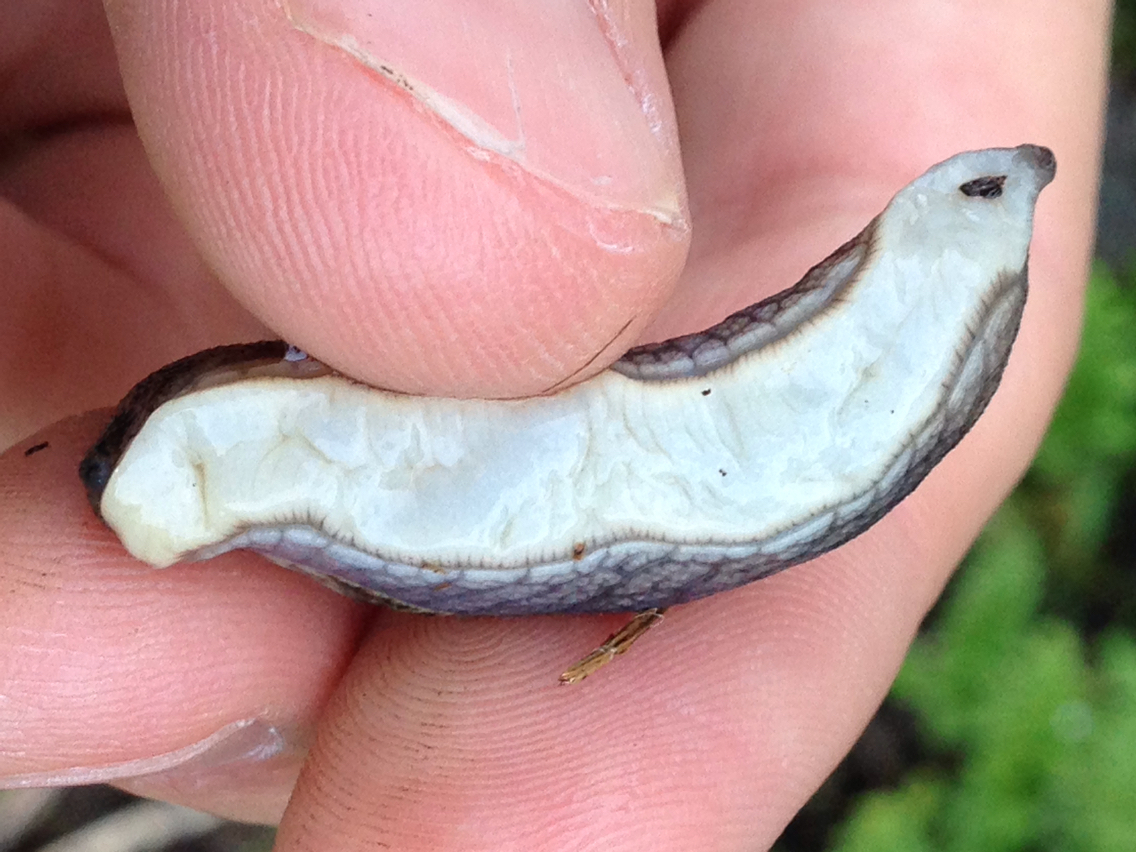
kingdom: Animalia
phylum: Mollusca
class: Gastropoda
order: Stylommatophora
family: Ariolimacidae
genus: Prophysaon
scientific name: Prophysaon andersonii
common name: Reticulate taildropper
